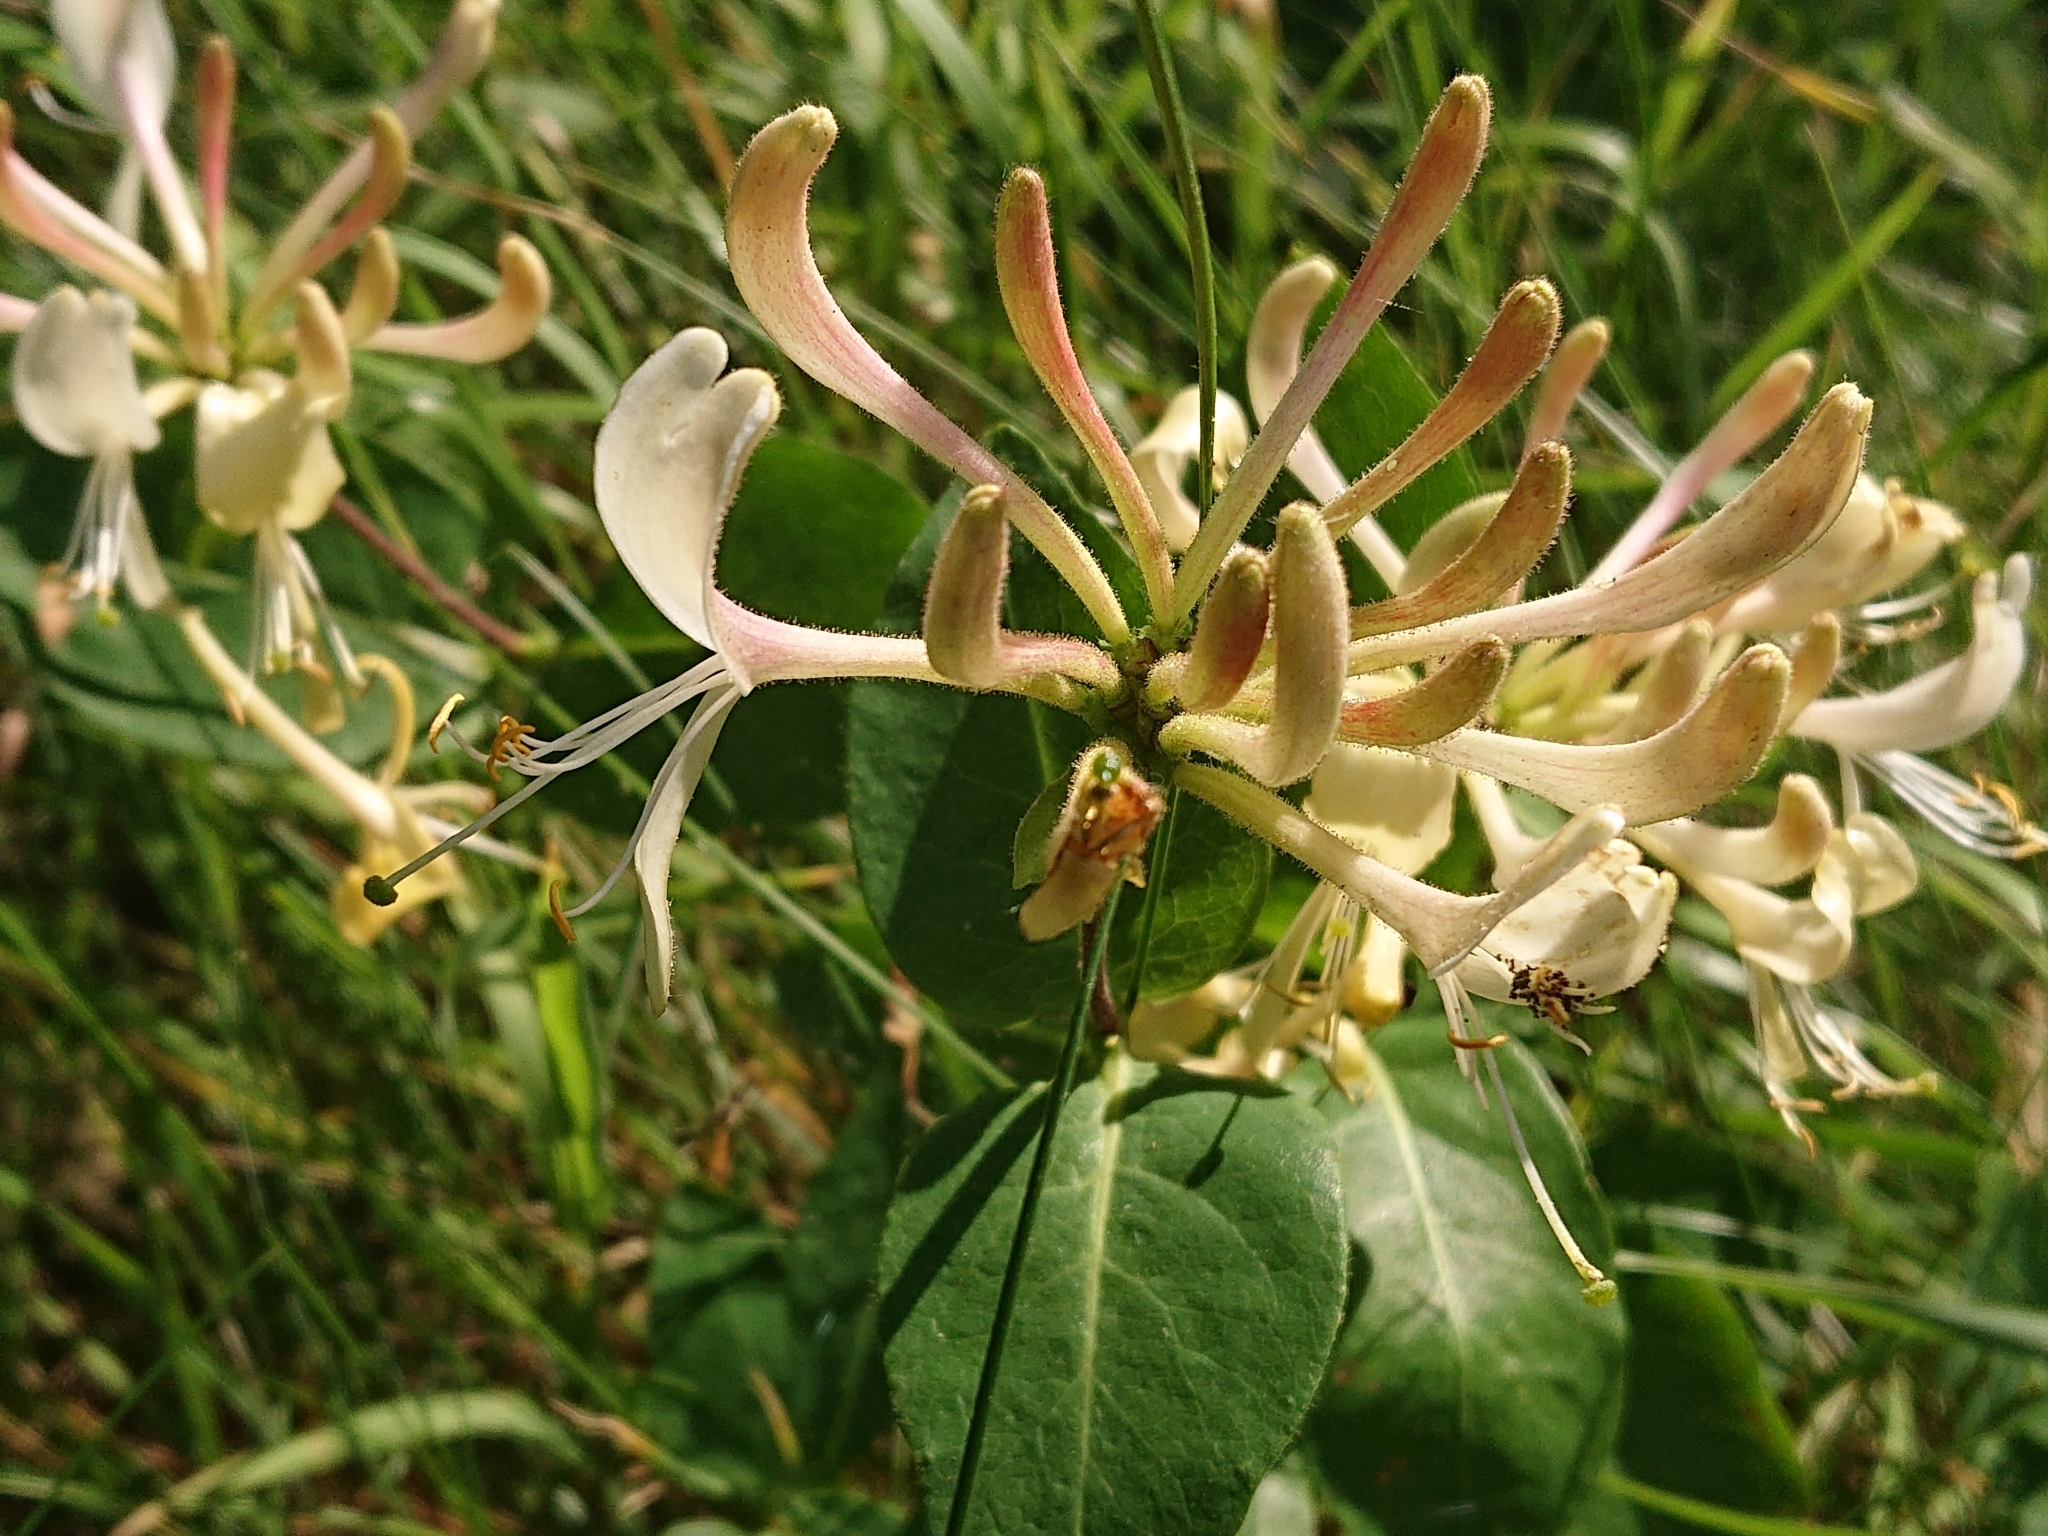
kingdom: Plantae
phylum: Tracheophyta
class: Magnoliopsida
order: Dipsacales
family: Caprifoliaceae
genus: Lonicera
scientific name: Lonicera periclymenum
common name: European honeysuckle
